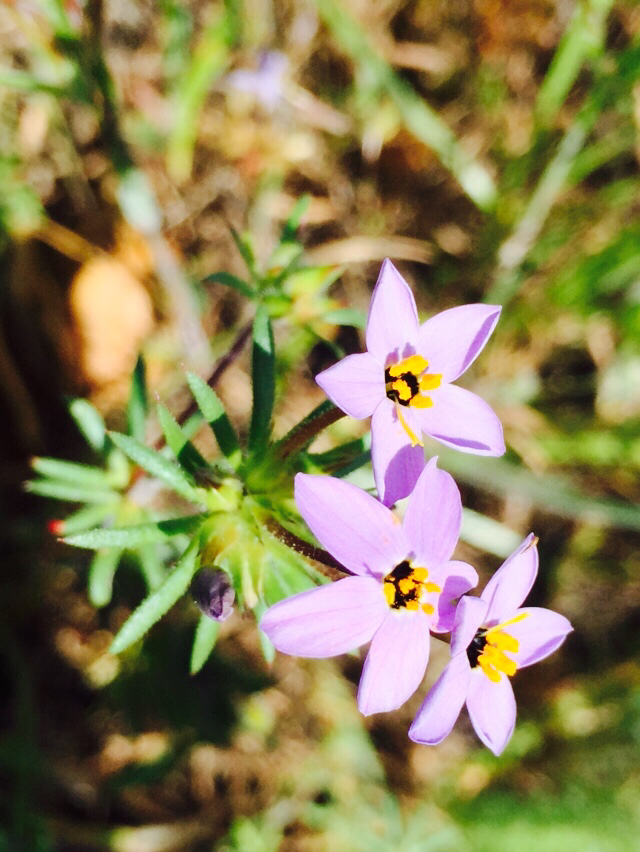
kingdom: Plantae
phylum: Tracheophyta
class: Magnoliopsida
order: Ericales
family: Polemoniaceae
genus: Leptosiphon
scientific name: Leptosiphon androsaceus
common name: False babystars
